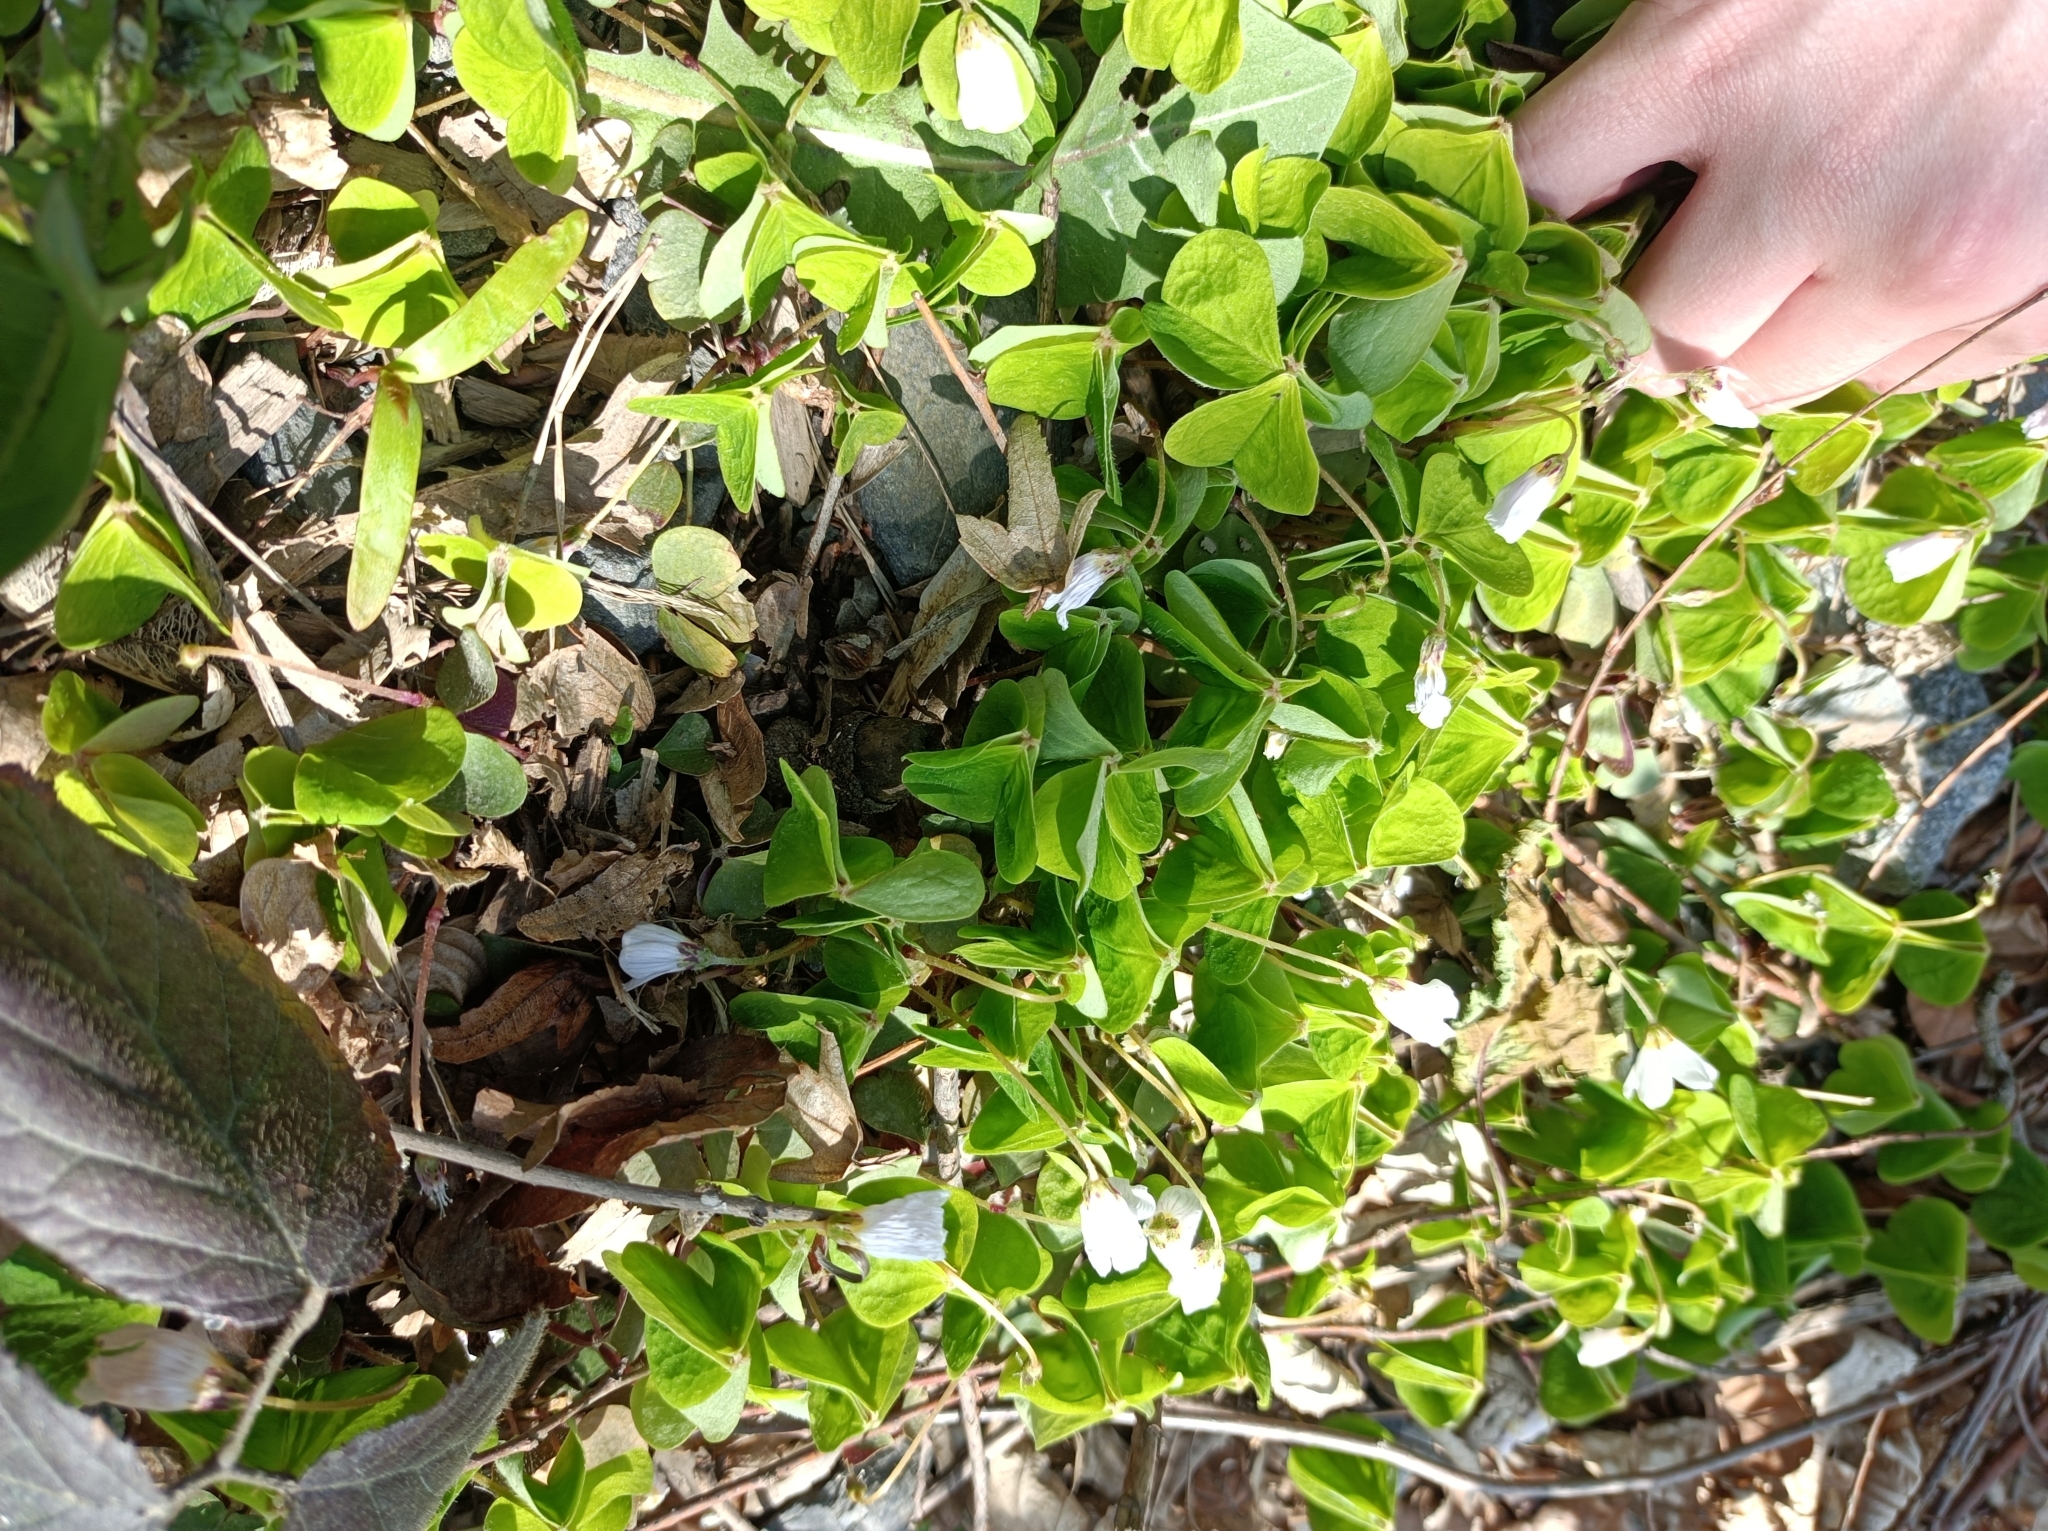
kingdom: Plantae
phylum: Tracheophyta
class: Magnoliopsida
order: Oxalidales
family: Oxalidaceae
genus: Oxalis
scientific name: Oxalis acetosella
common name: Wood-sorrel
